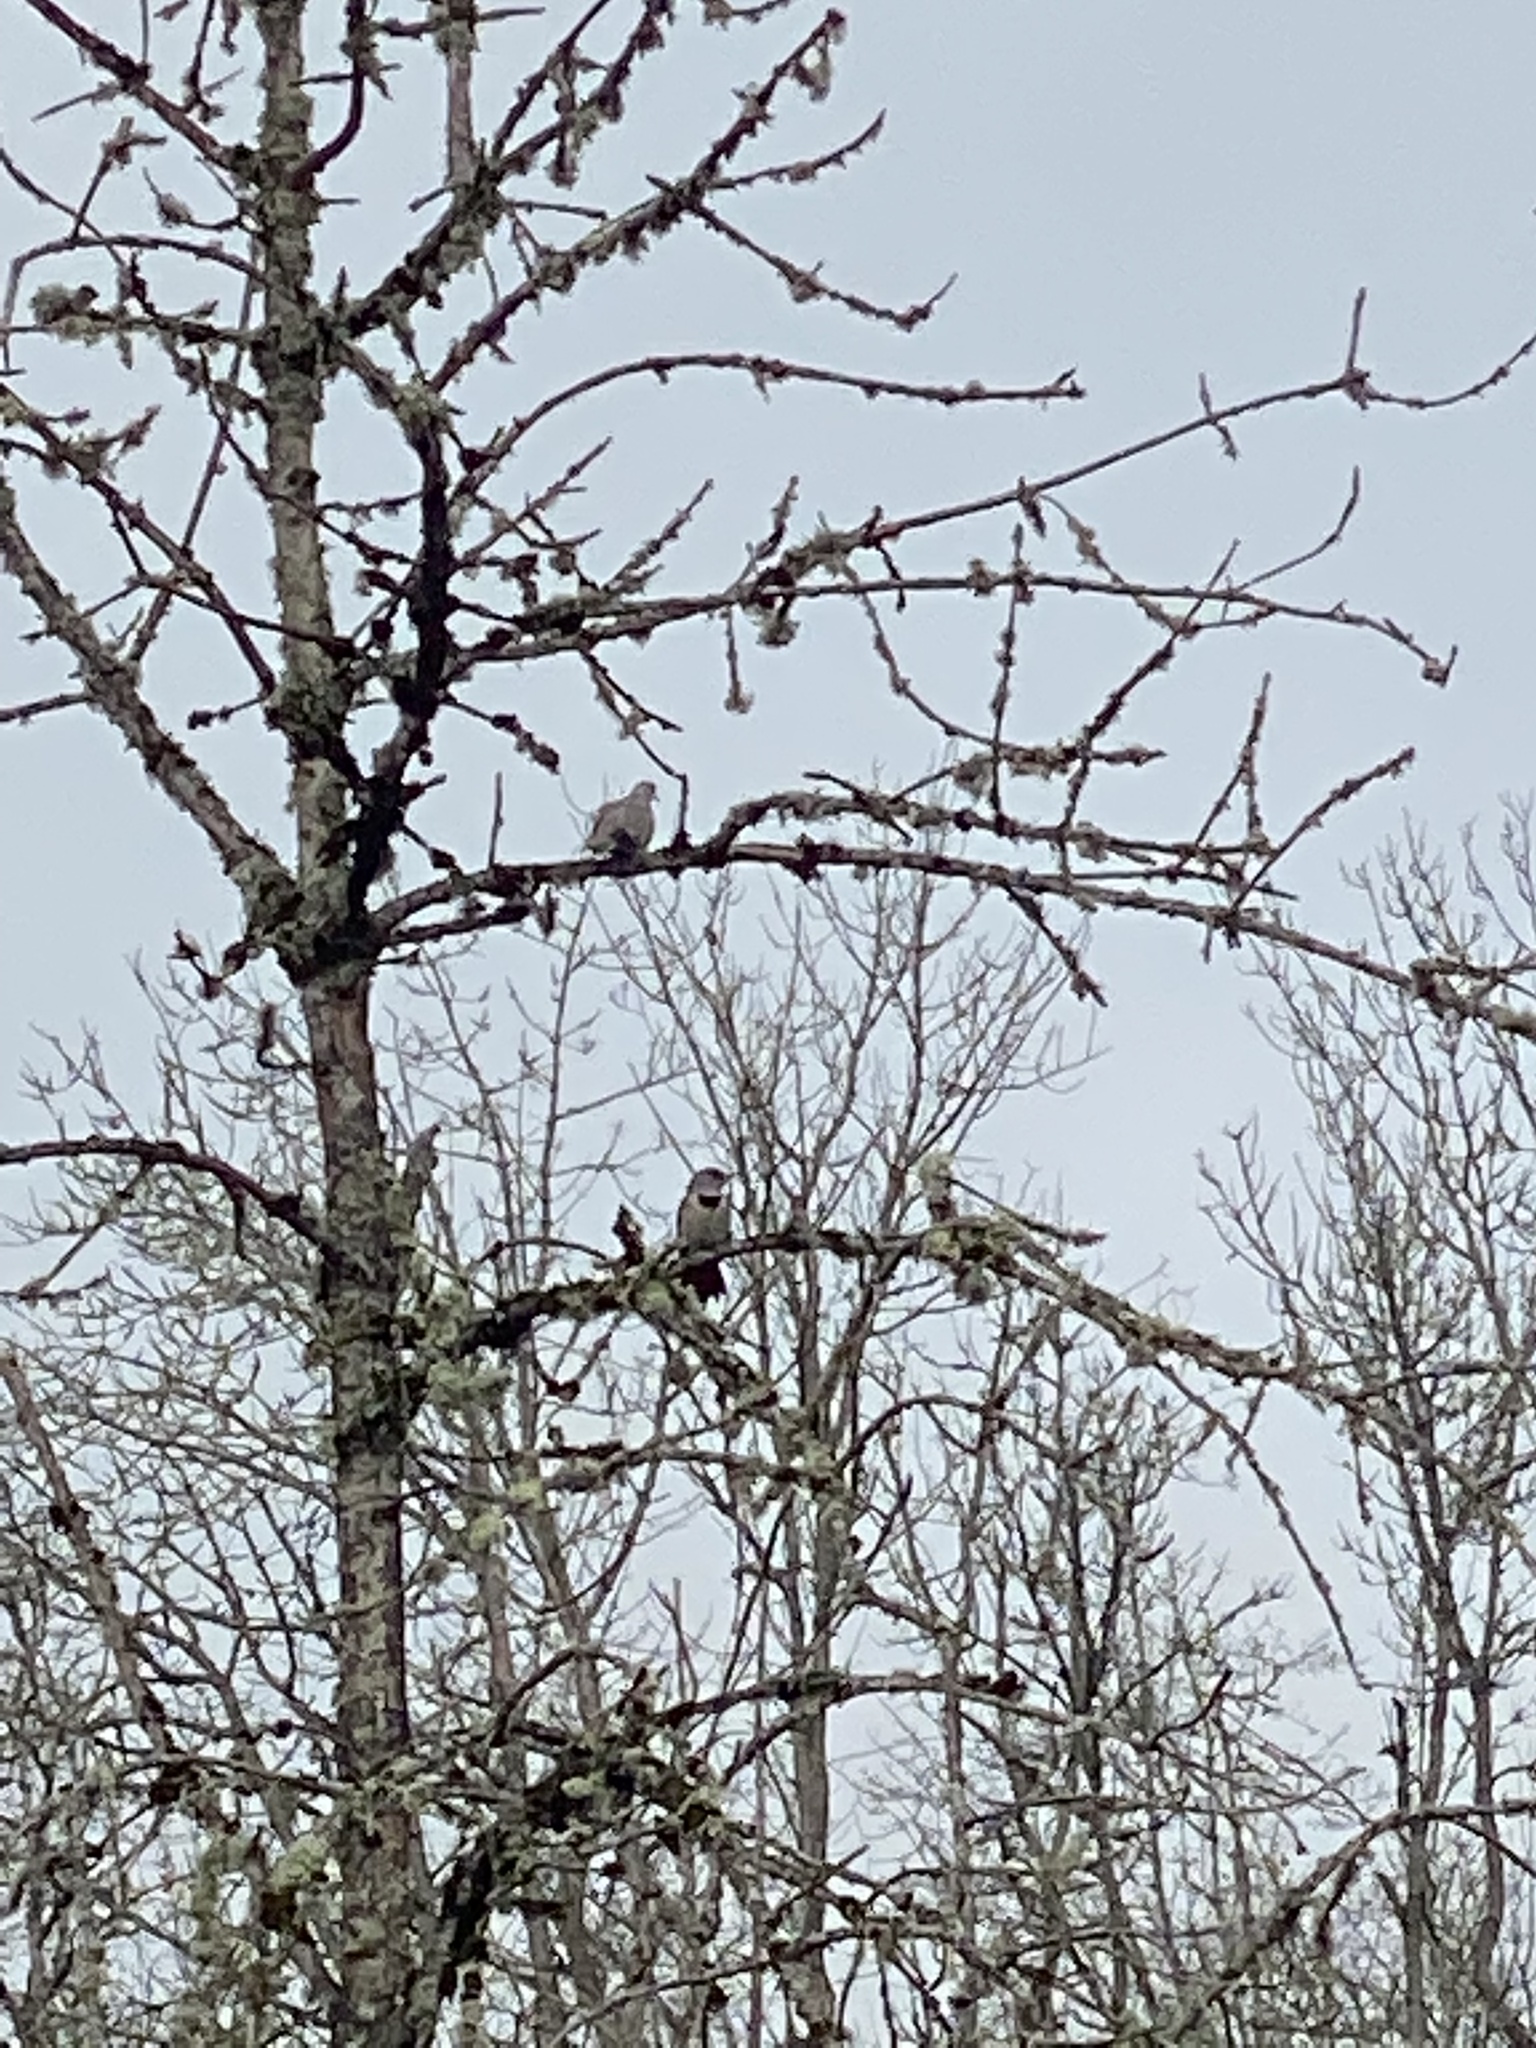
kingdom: Animalia
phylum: Chordata
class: Aves
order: Piciformes
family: Picidae
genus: Colaptes
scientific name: Colaptes auratus
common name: Northern flicker
